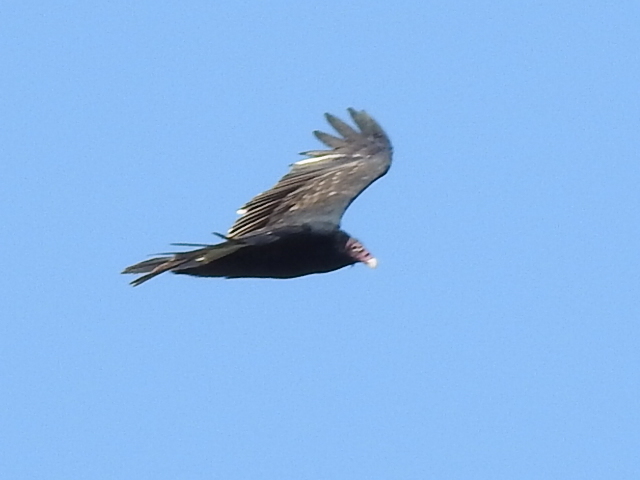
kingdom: Animalia
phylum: Chordata
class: Aves
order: Accipitriformes
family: Cathartidae
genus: Cathartes
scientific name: Cathartes aura
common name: Turkey vulture
